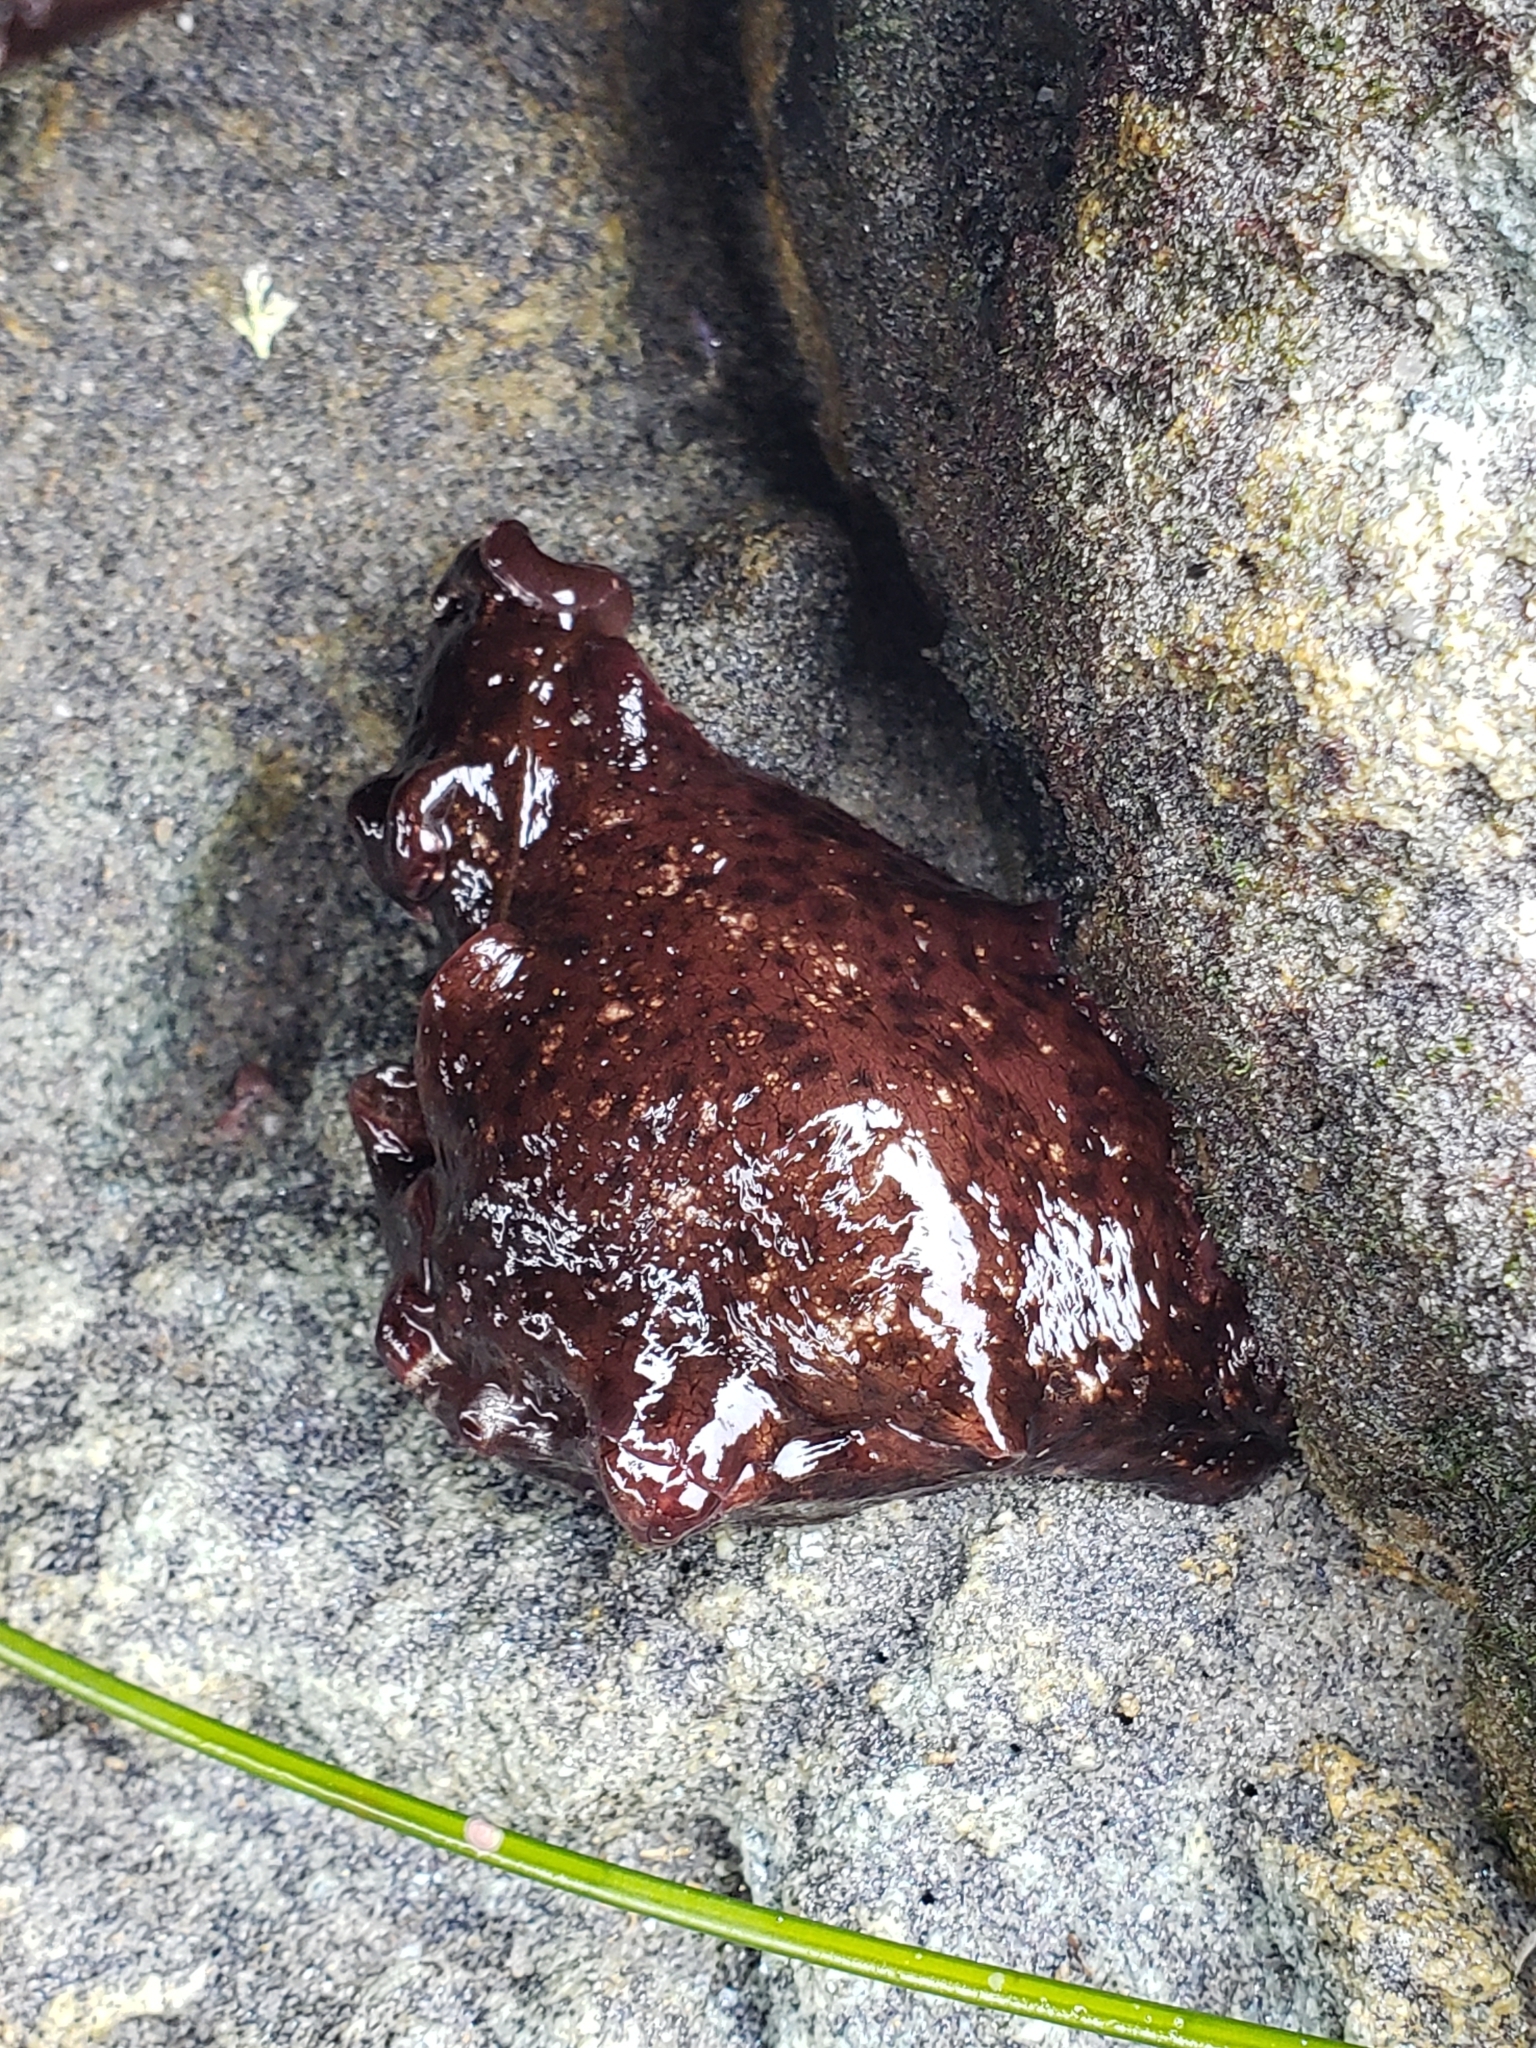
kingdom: Animalia
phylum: Mollusca
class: Gastropoda
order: Aplysiida
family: Aplysiidae
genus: Aplysia
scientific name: Aplysia californica
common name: California seahare
